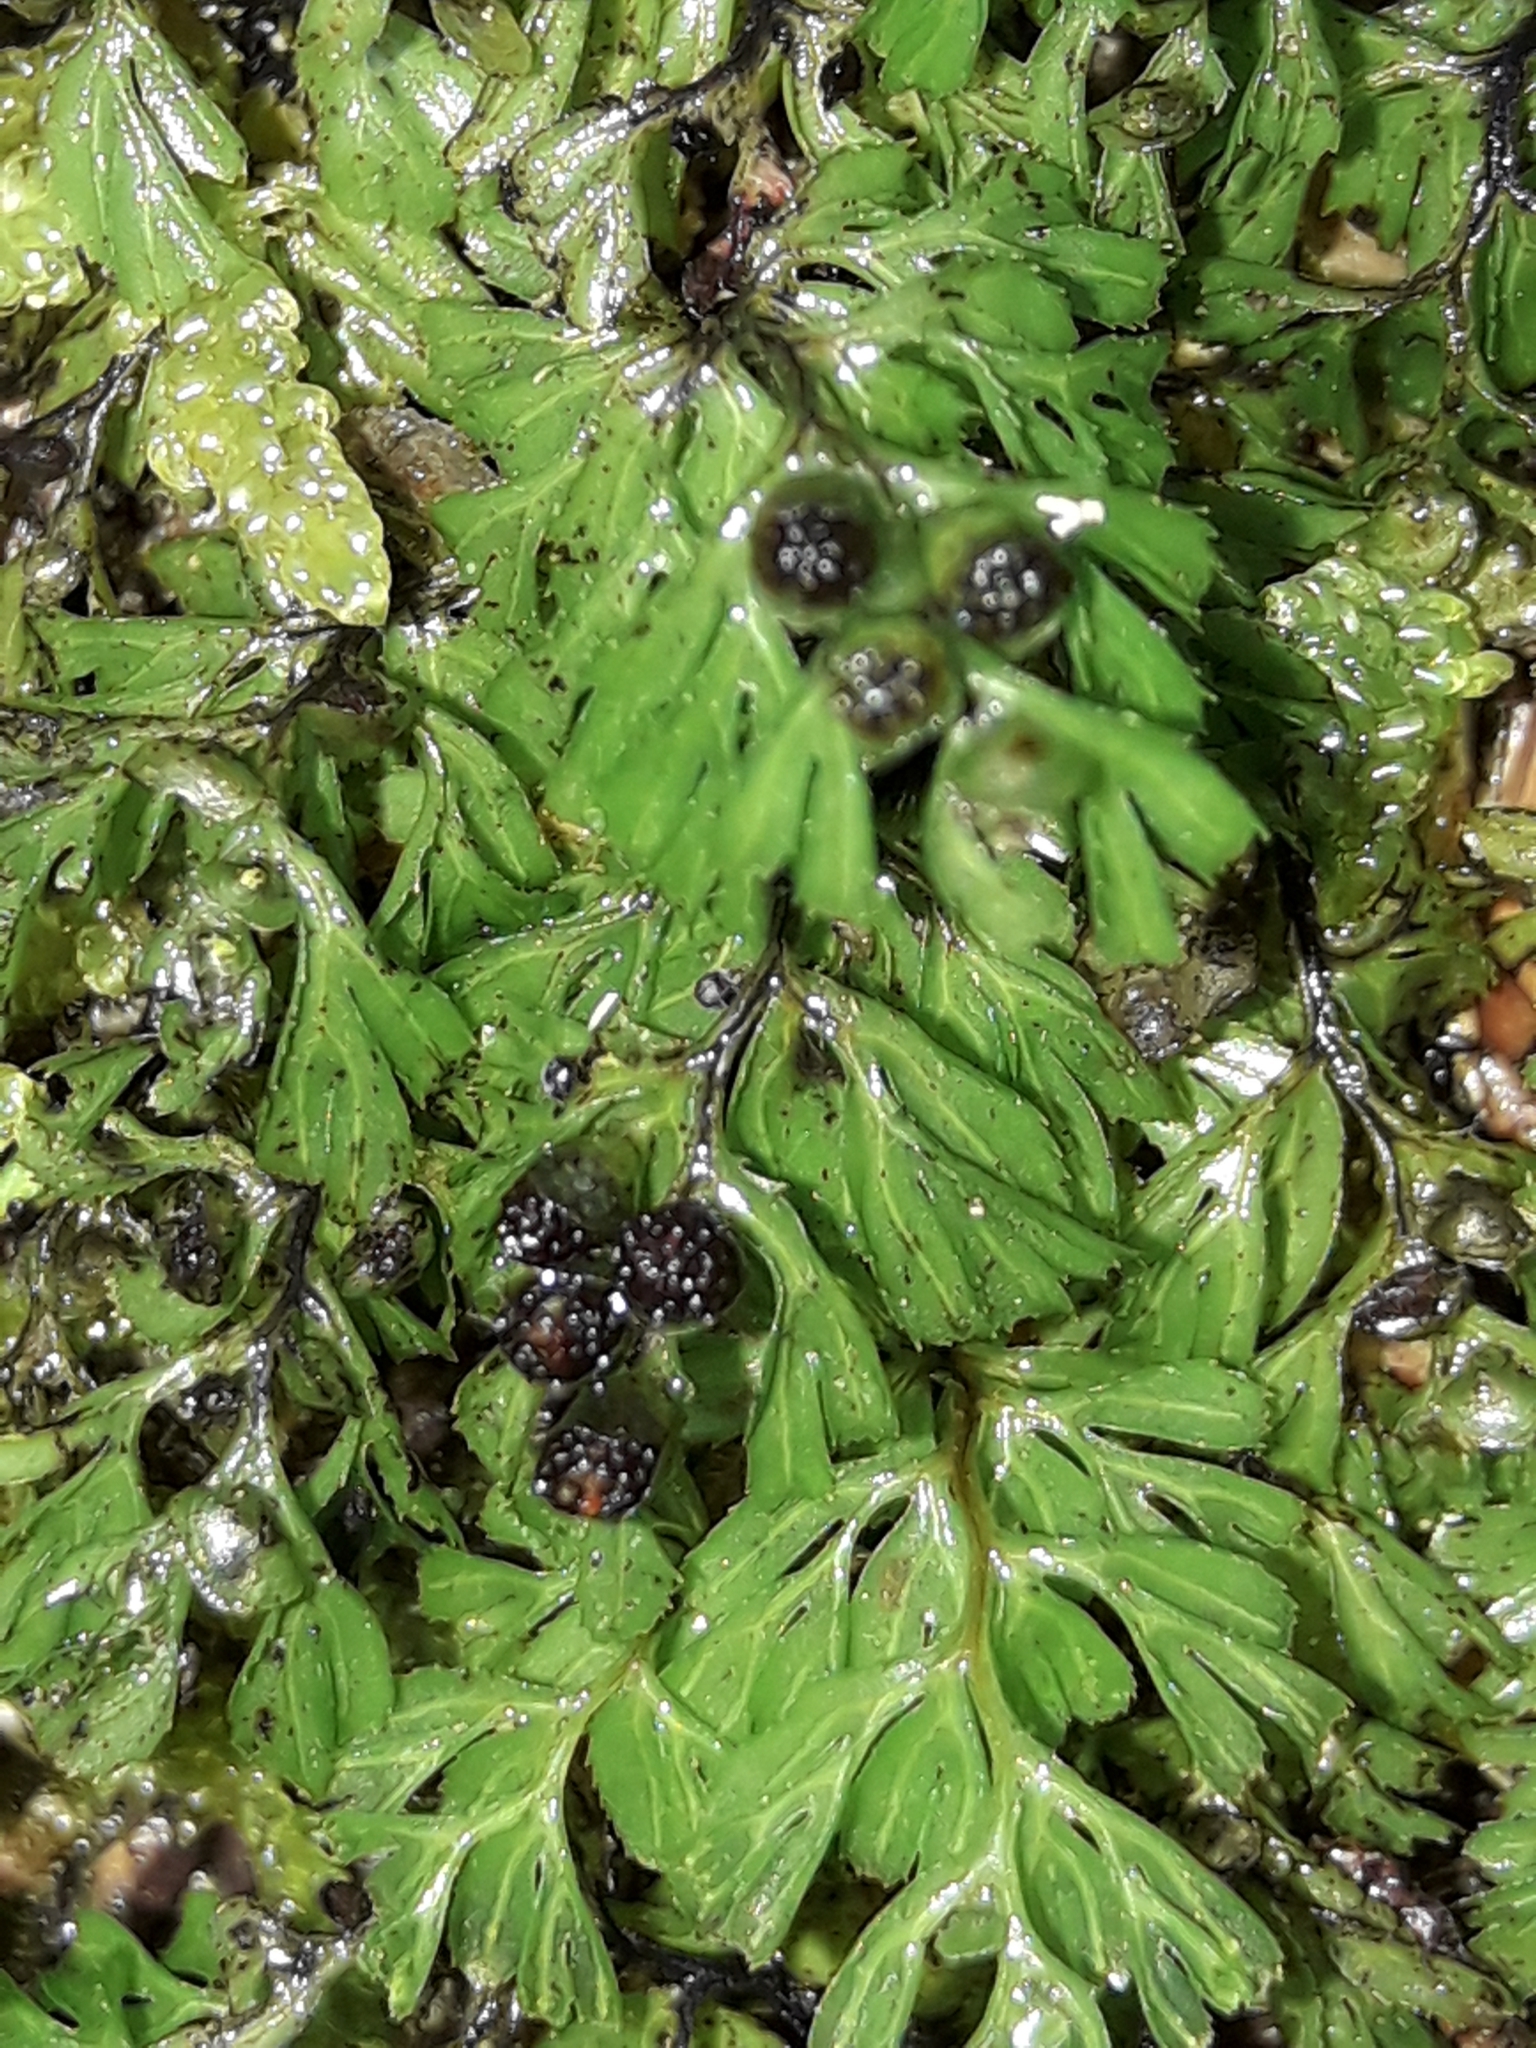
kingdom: Plantae
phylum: Tracheophyta
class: Polypodiopsida
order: Hymenophyllales
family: Hymenophyllaceae
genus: Hymenophyllum
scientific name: Hymenophyllum cupressiforme
